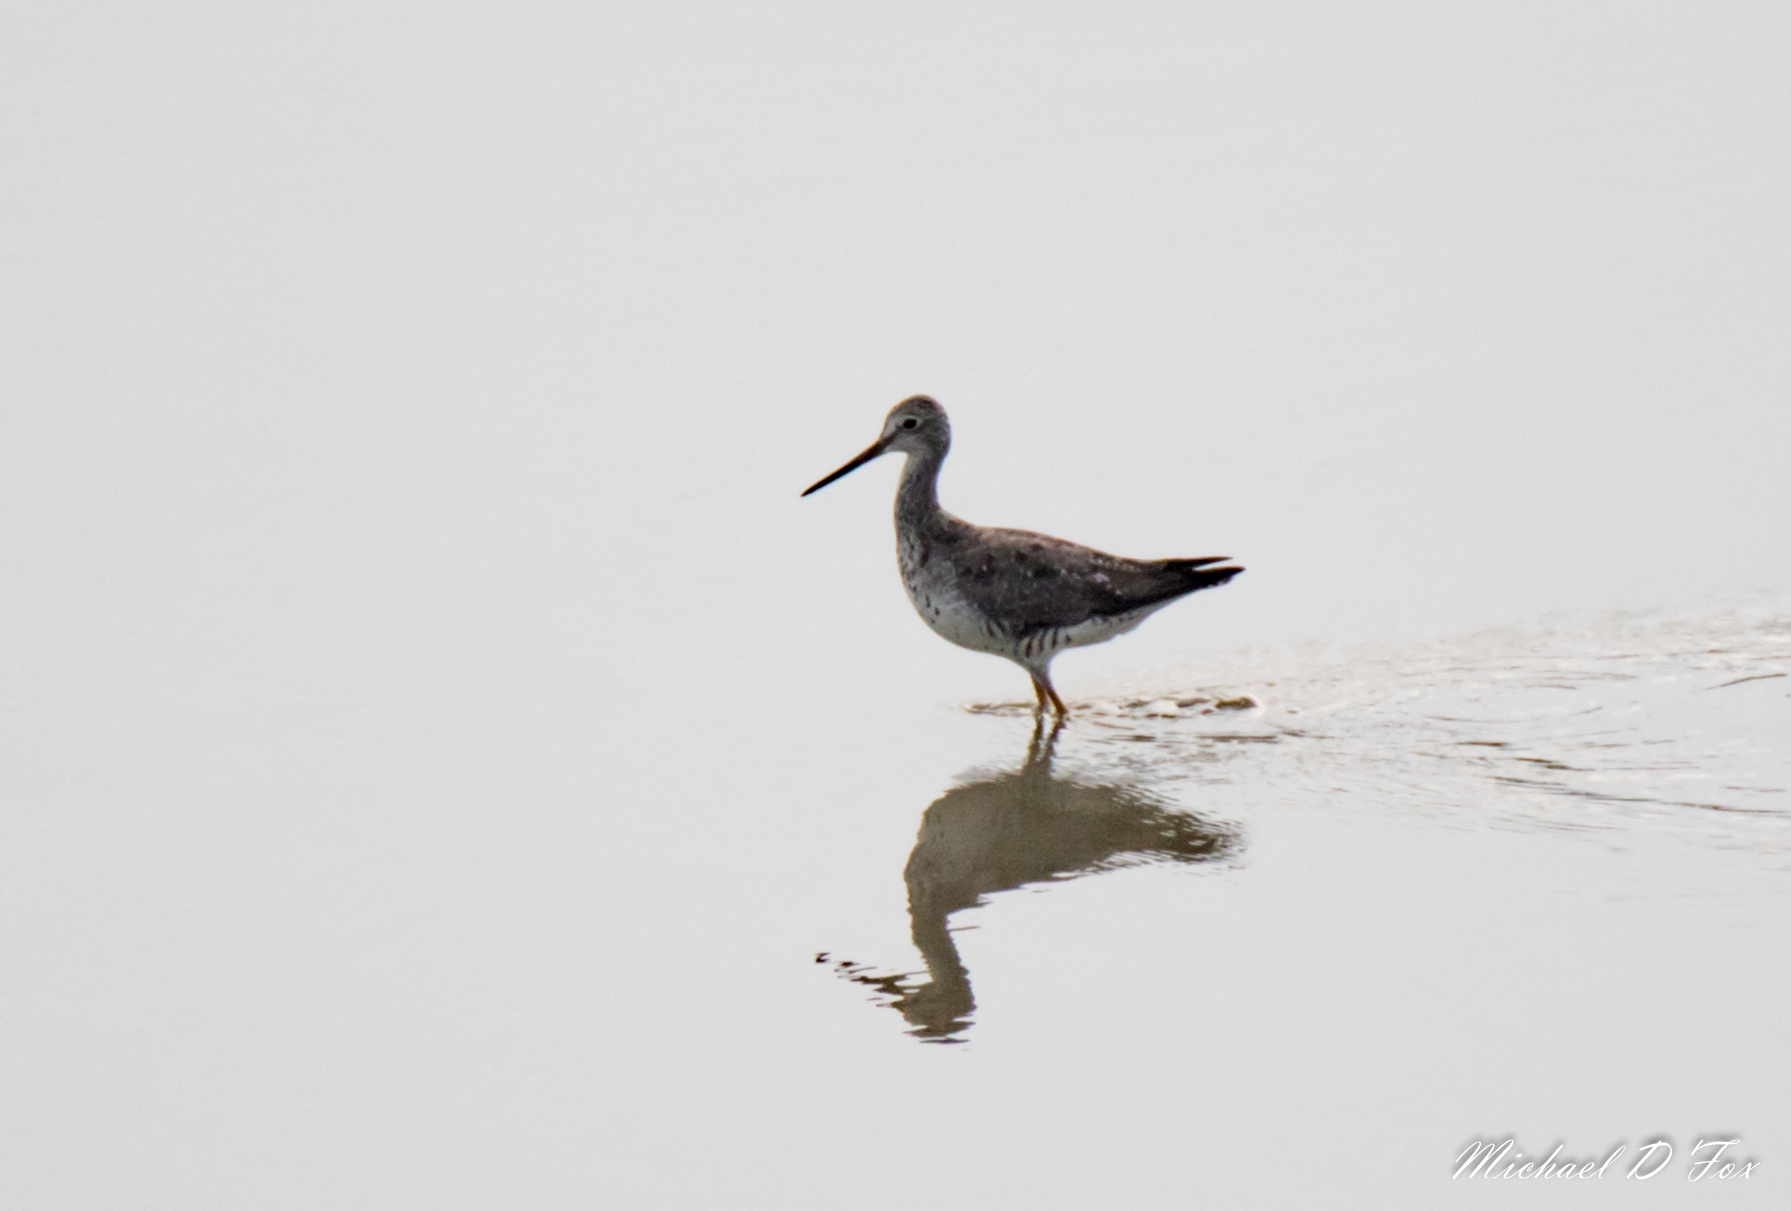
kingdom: Animalia
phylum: Chordata
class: Aves
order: Charadriiformes
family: Scolopacidae
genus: Tringa
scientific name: Tringa melanoleuca
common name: Greater yellowlegs
